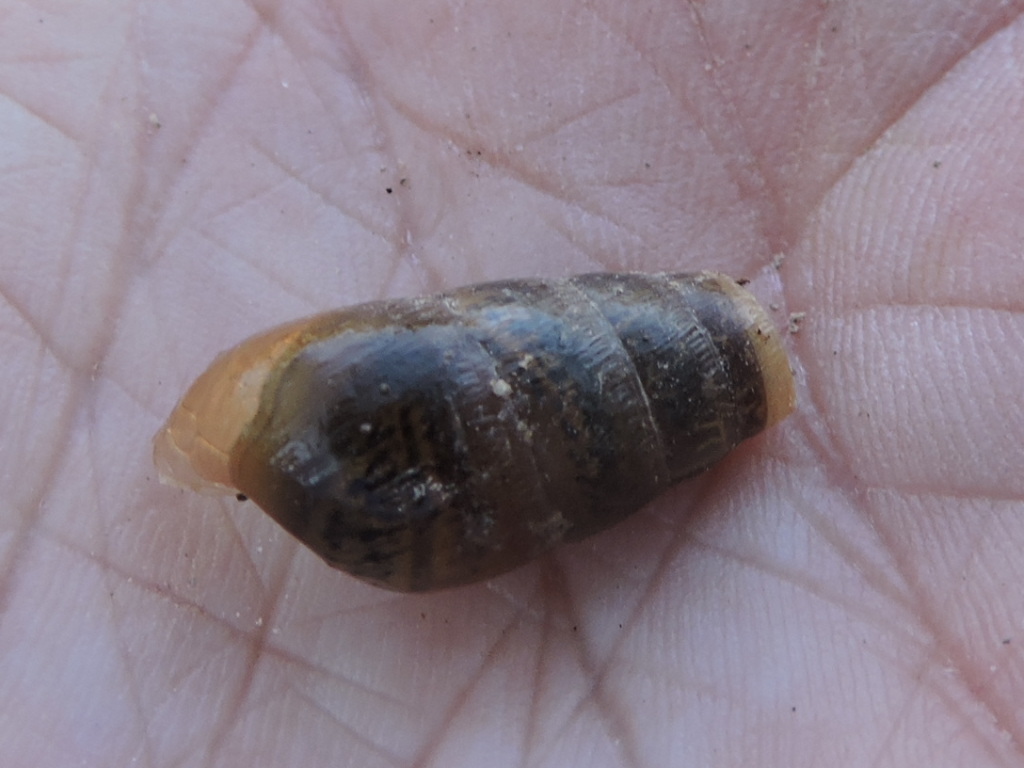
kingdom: Animalia
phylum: Mollusca
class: Gastropoda
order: Stylommatophora
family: Achatinidae
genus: Rumina
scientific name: Rumina decollata
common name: Decollate snail
